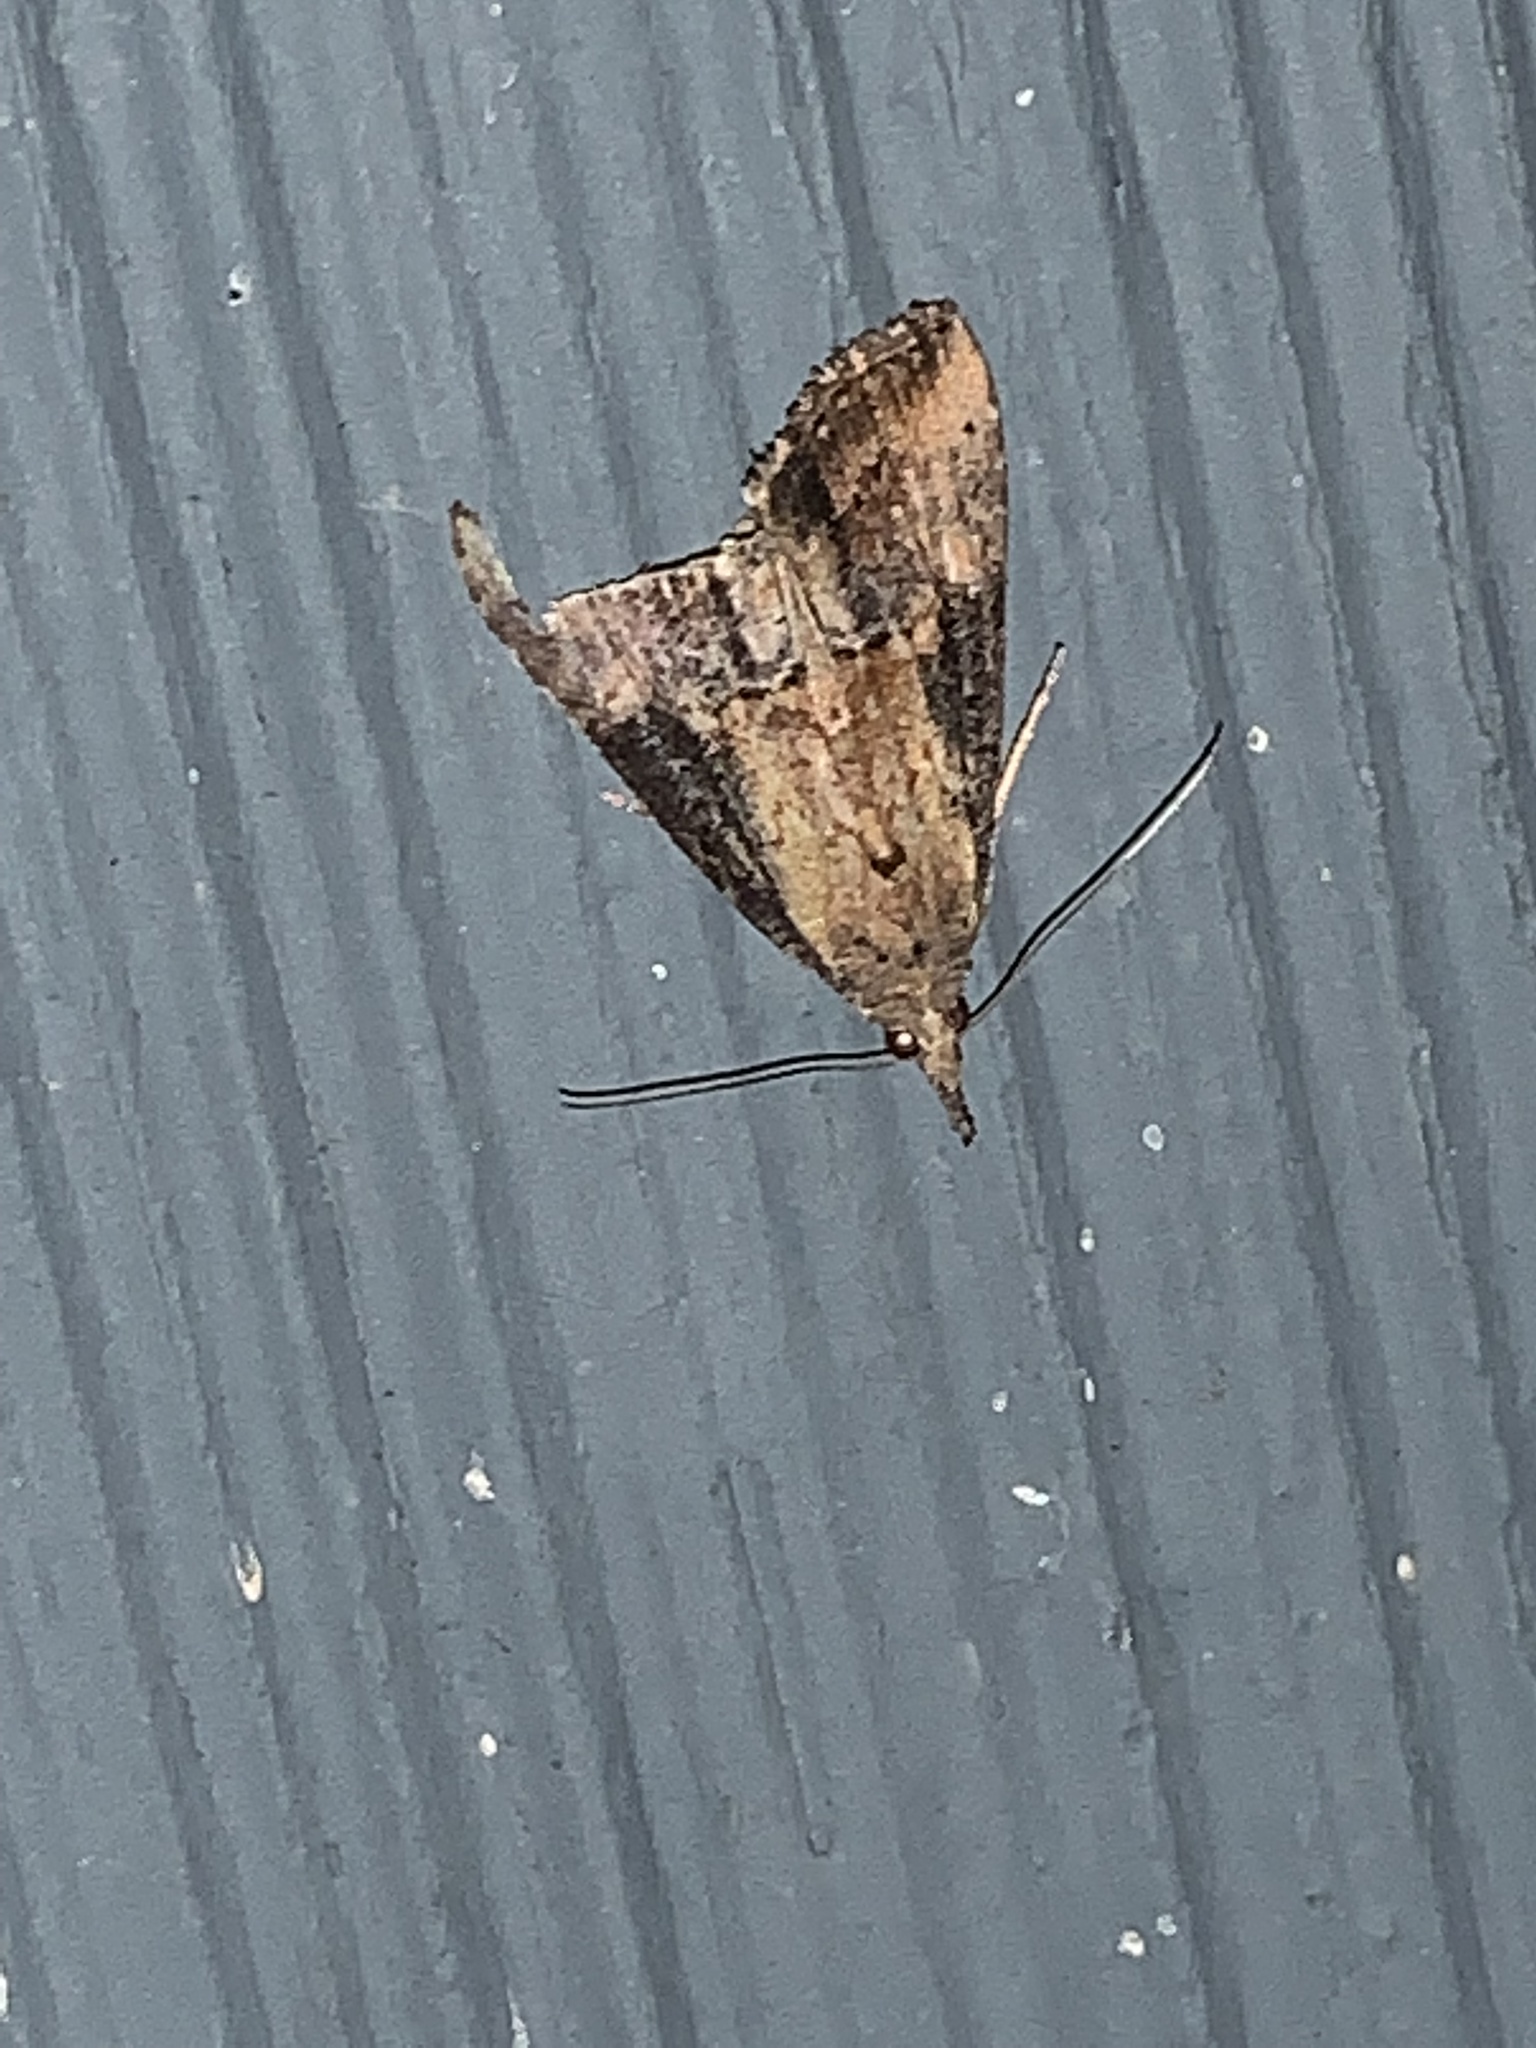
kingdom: Animalia
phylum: Arthropoda
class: Insecta
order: Lepidoptera
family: Erebidae
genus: Hypena
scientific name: Hypena scabra
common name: Green cloverworm
